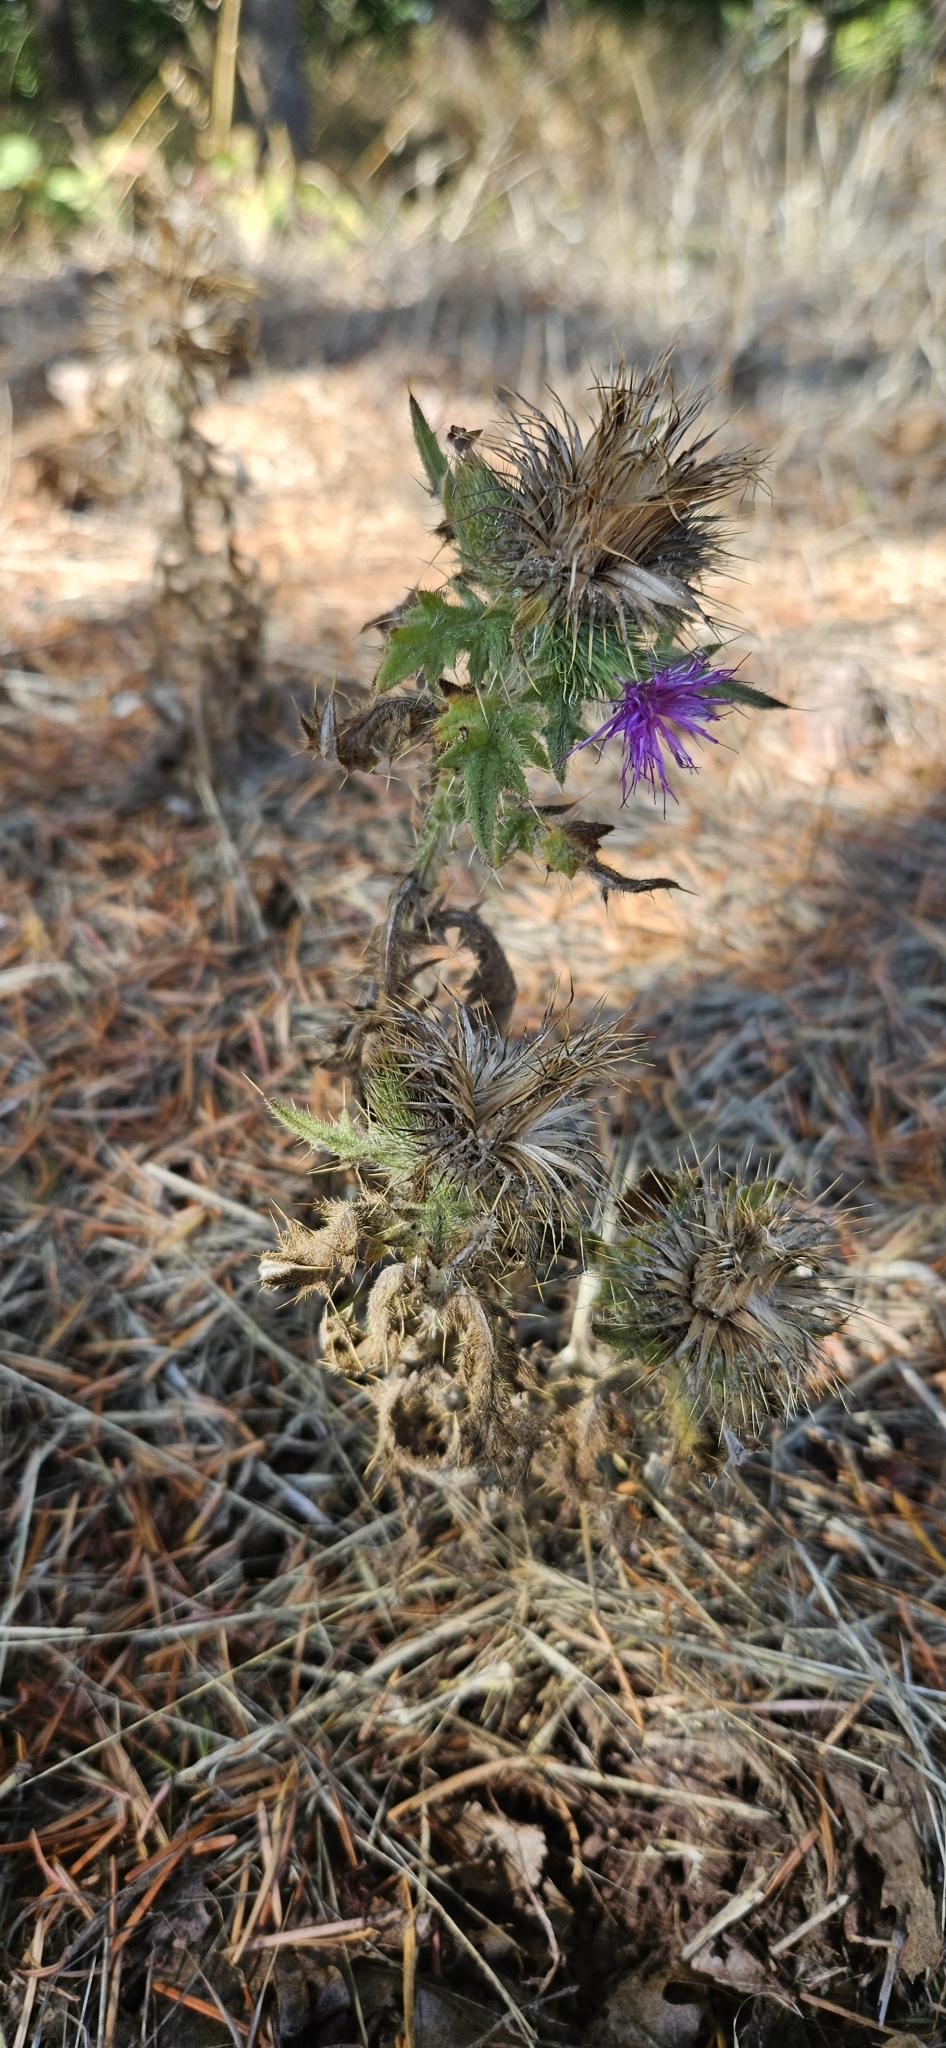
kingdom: Plantae
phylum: Tracheophyta
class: Magnoliopsida
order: Asterales
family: Asteraceae
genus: Cirsium
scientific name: Cirsium vulgare
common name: Bull thistle
